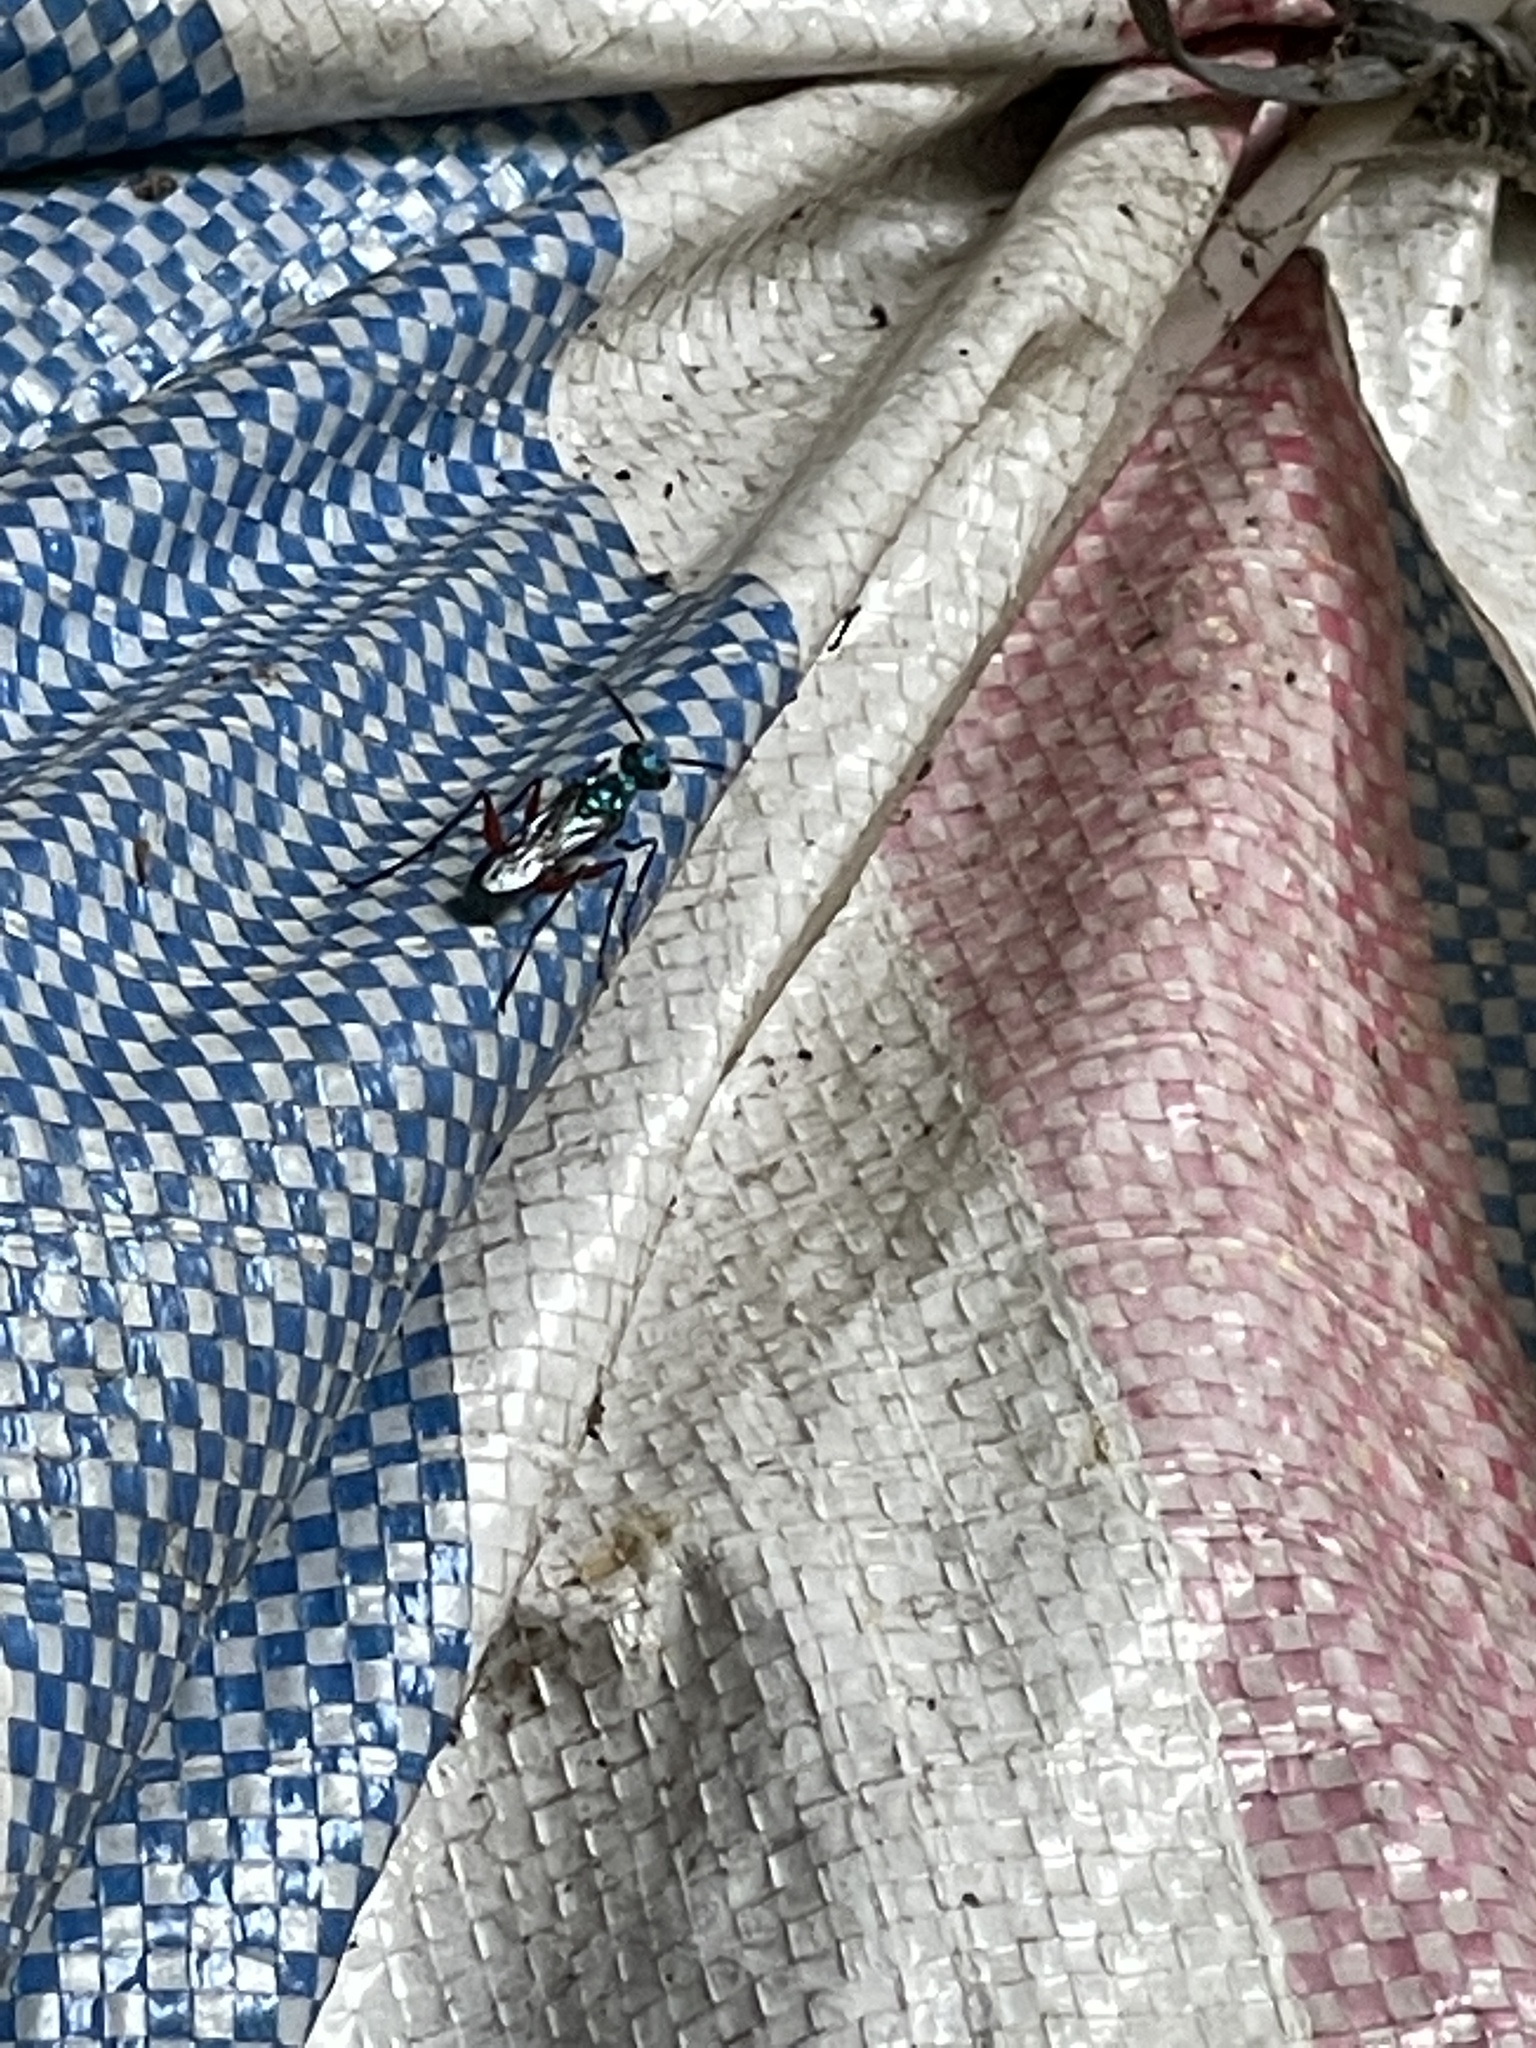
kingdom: Animalia
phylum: Arthropoda
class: Insecta
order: Hymenoptera
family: Ampulicidae
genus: Ampulex
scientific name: Ampulex compressa
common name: Emerald cockroach wasp
